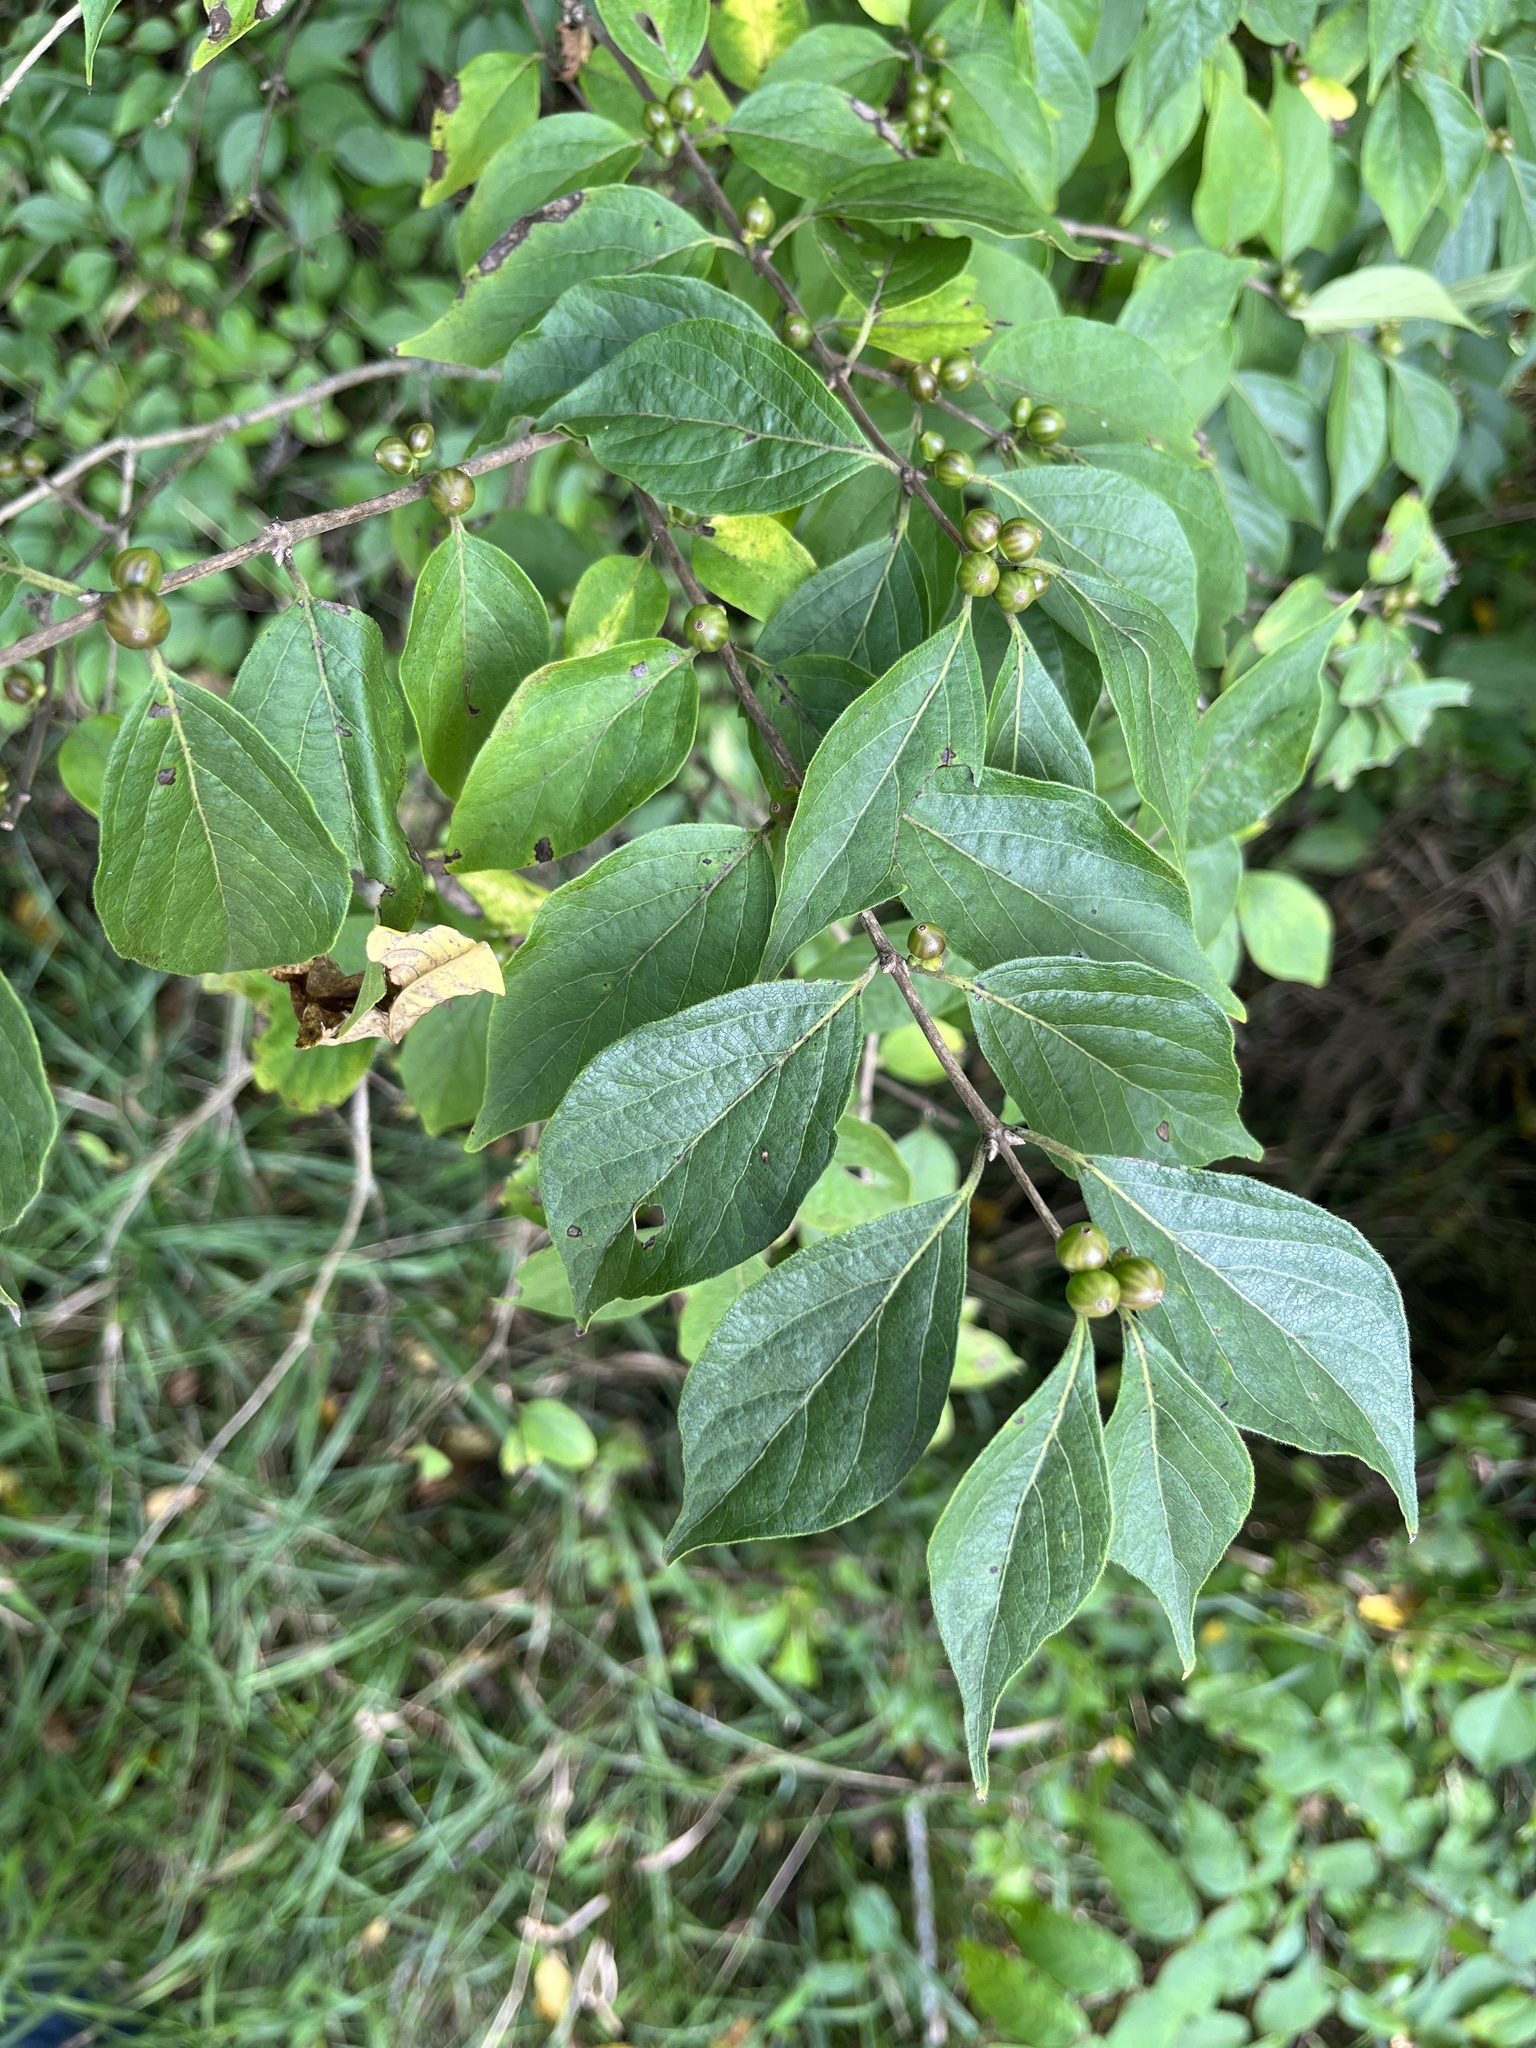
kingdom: Plantae
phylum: Tracheophyta
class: Magnoliopsida
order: Dipsacales
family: Caprifoliaceae
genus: Lonicera
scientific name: Lonicera maackii
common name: Amur honeysuckle
